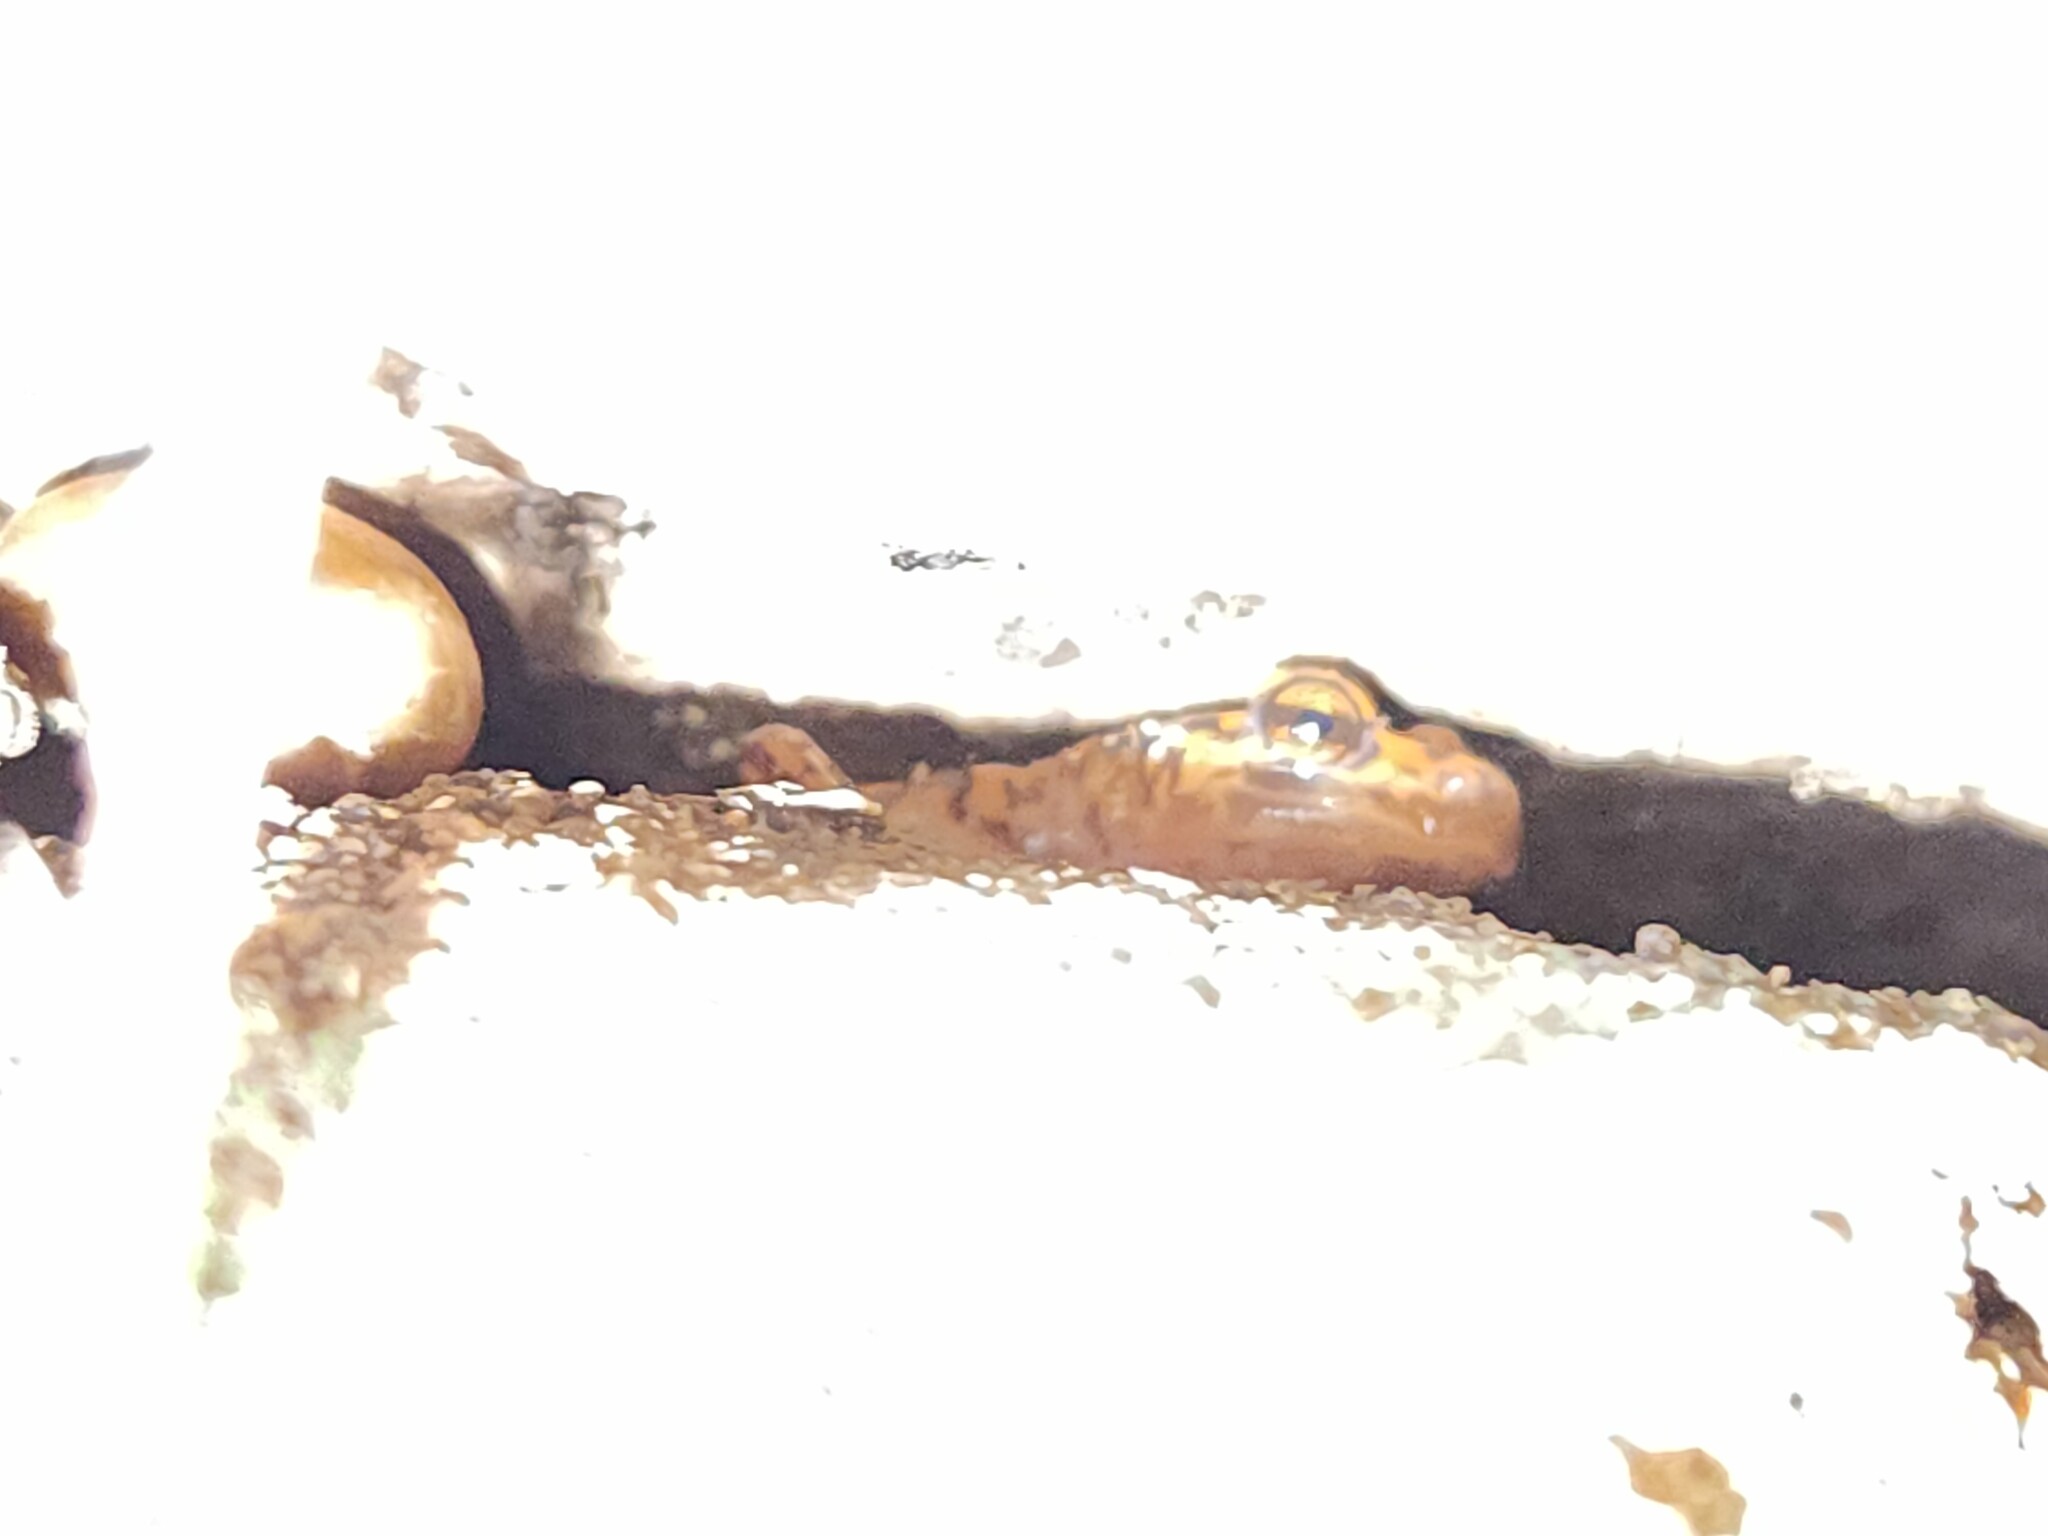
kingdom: Animalia
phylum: Chordata
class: Amphibia
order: Caudata
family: Plethodontidae
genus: Eurycea
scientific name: Eurycea lucifuga
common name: Cave salamander
